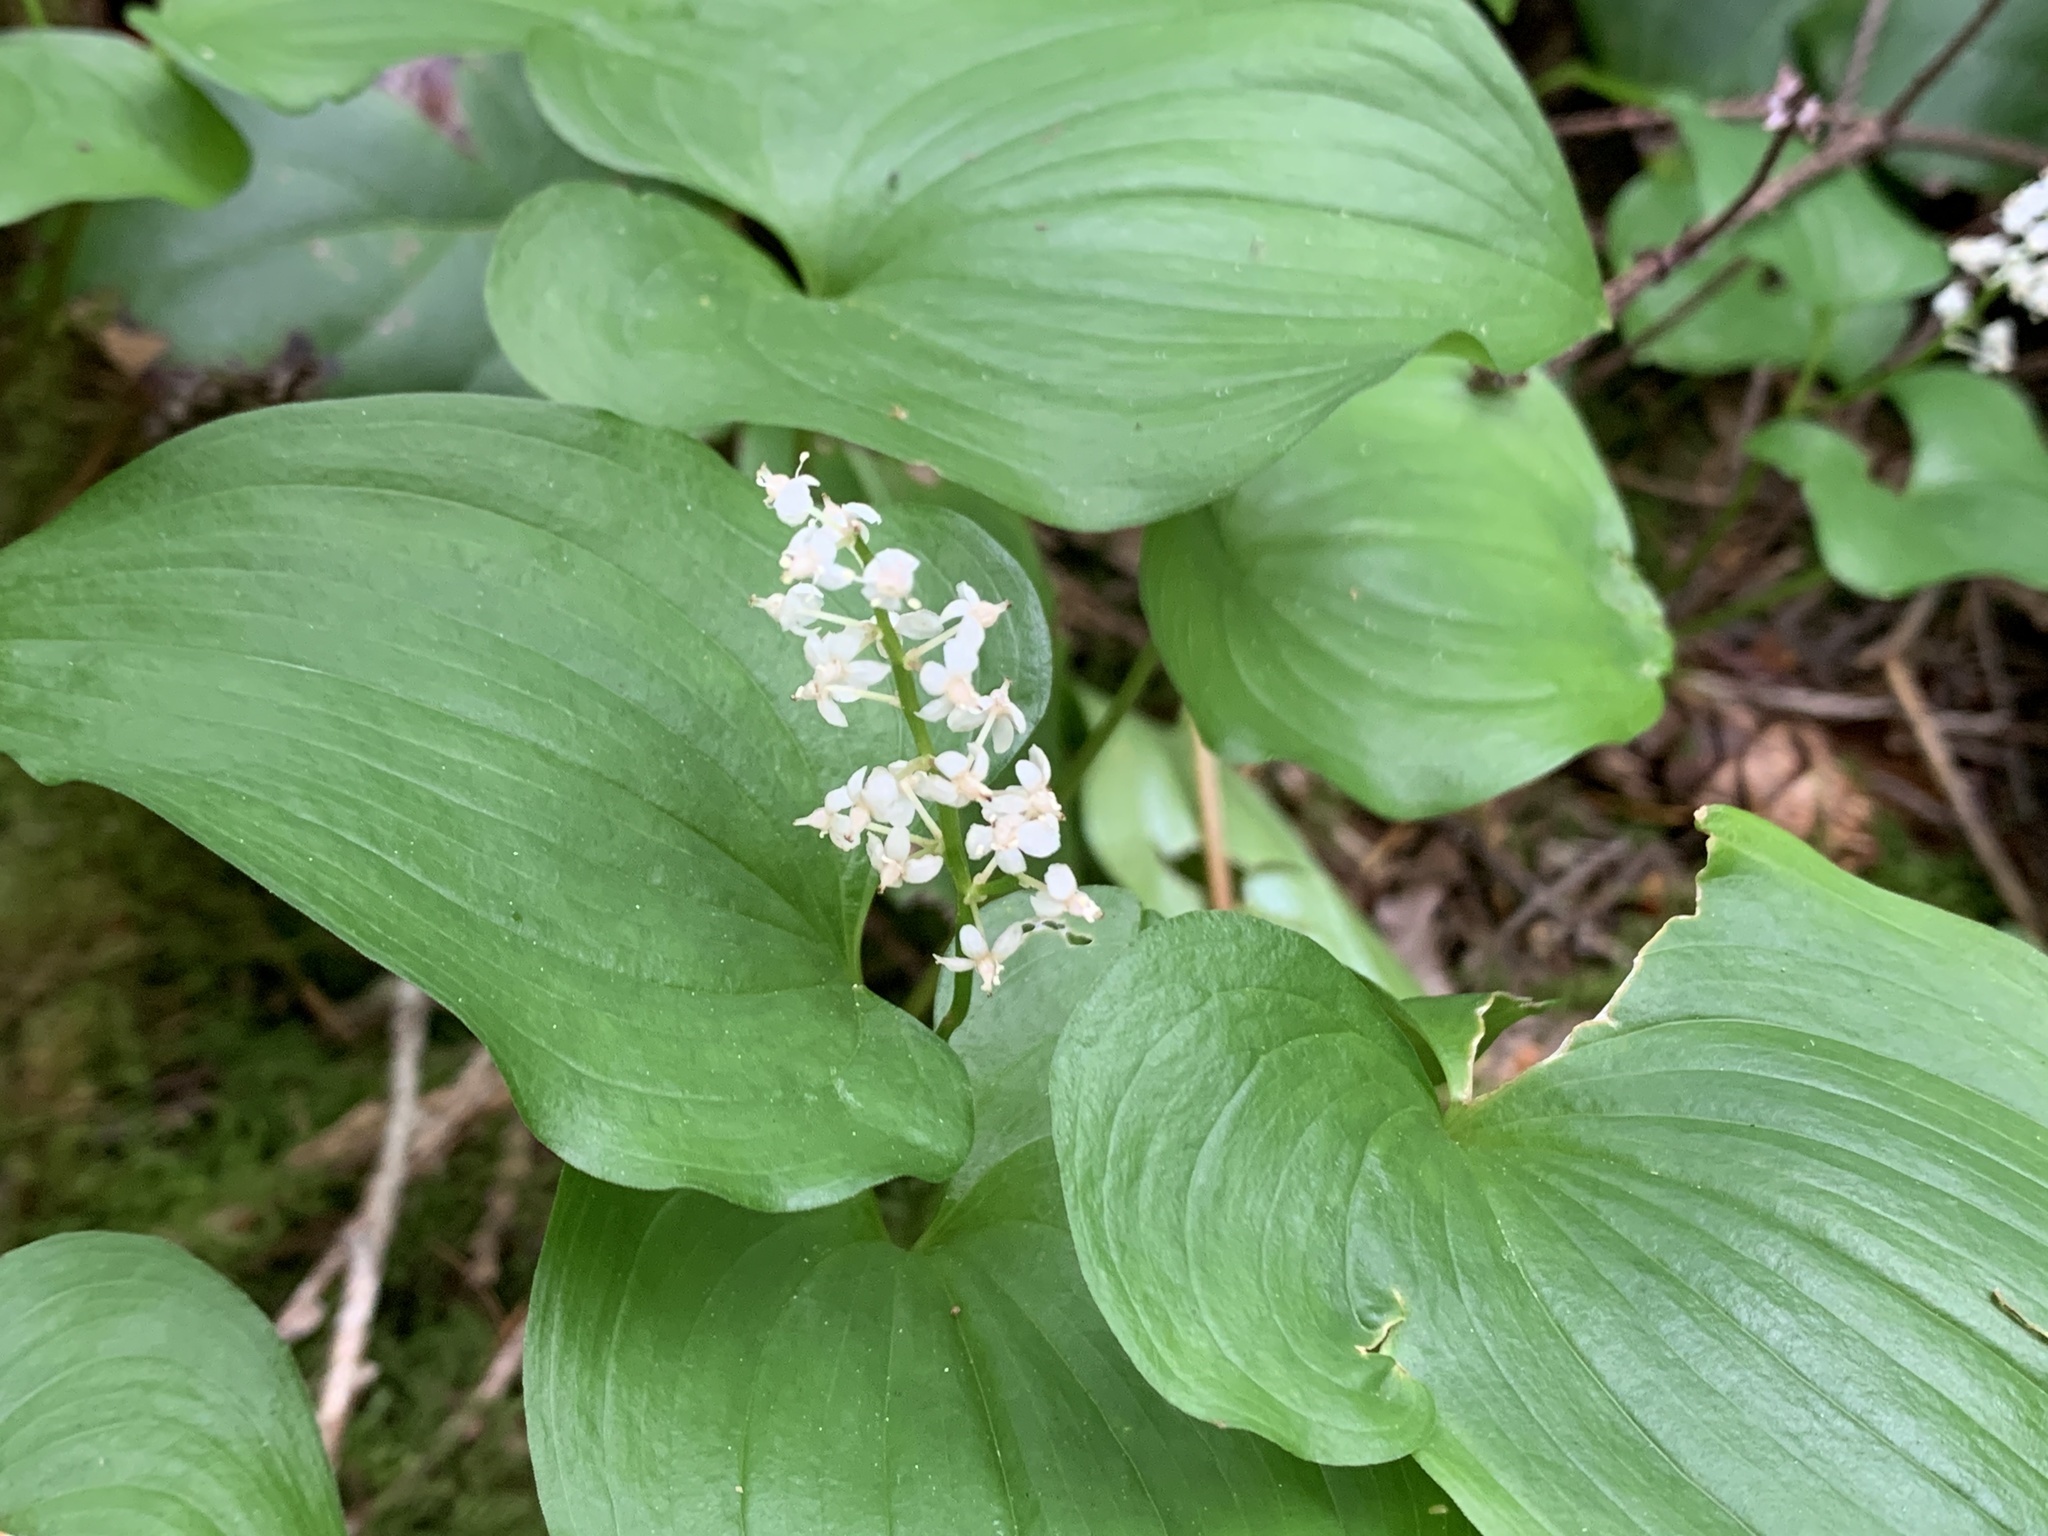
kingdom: Plantae
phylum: Tracheophyta
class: Liliopsida
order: Asparagales
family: Asparagaceae
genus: Maianthemum
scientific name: Maianthemum dilatatum
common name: False lily-of-the-valley
